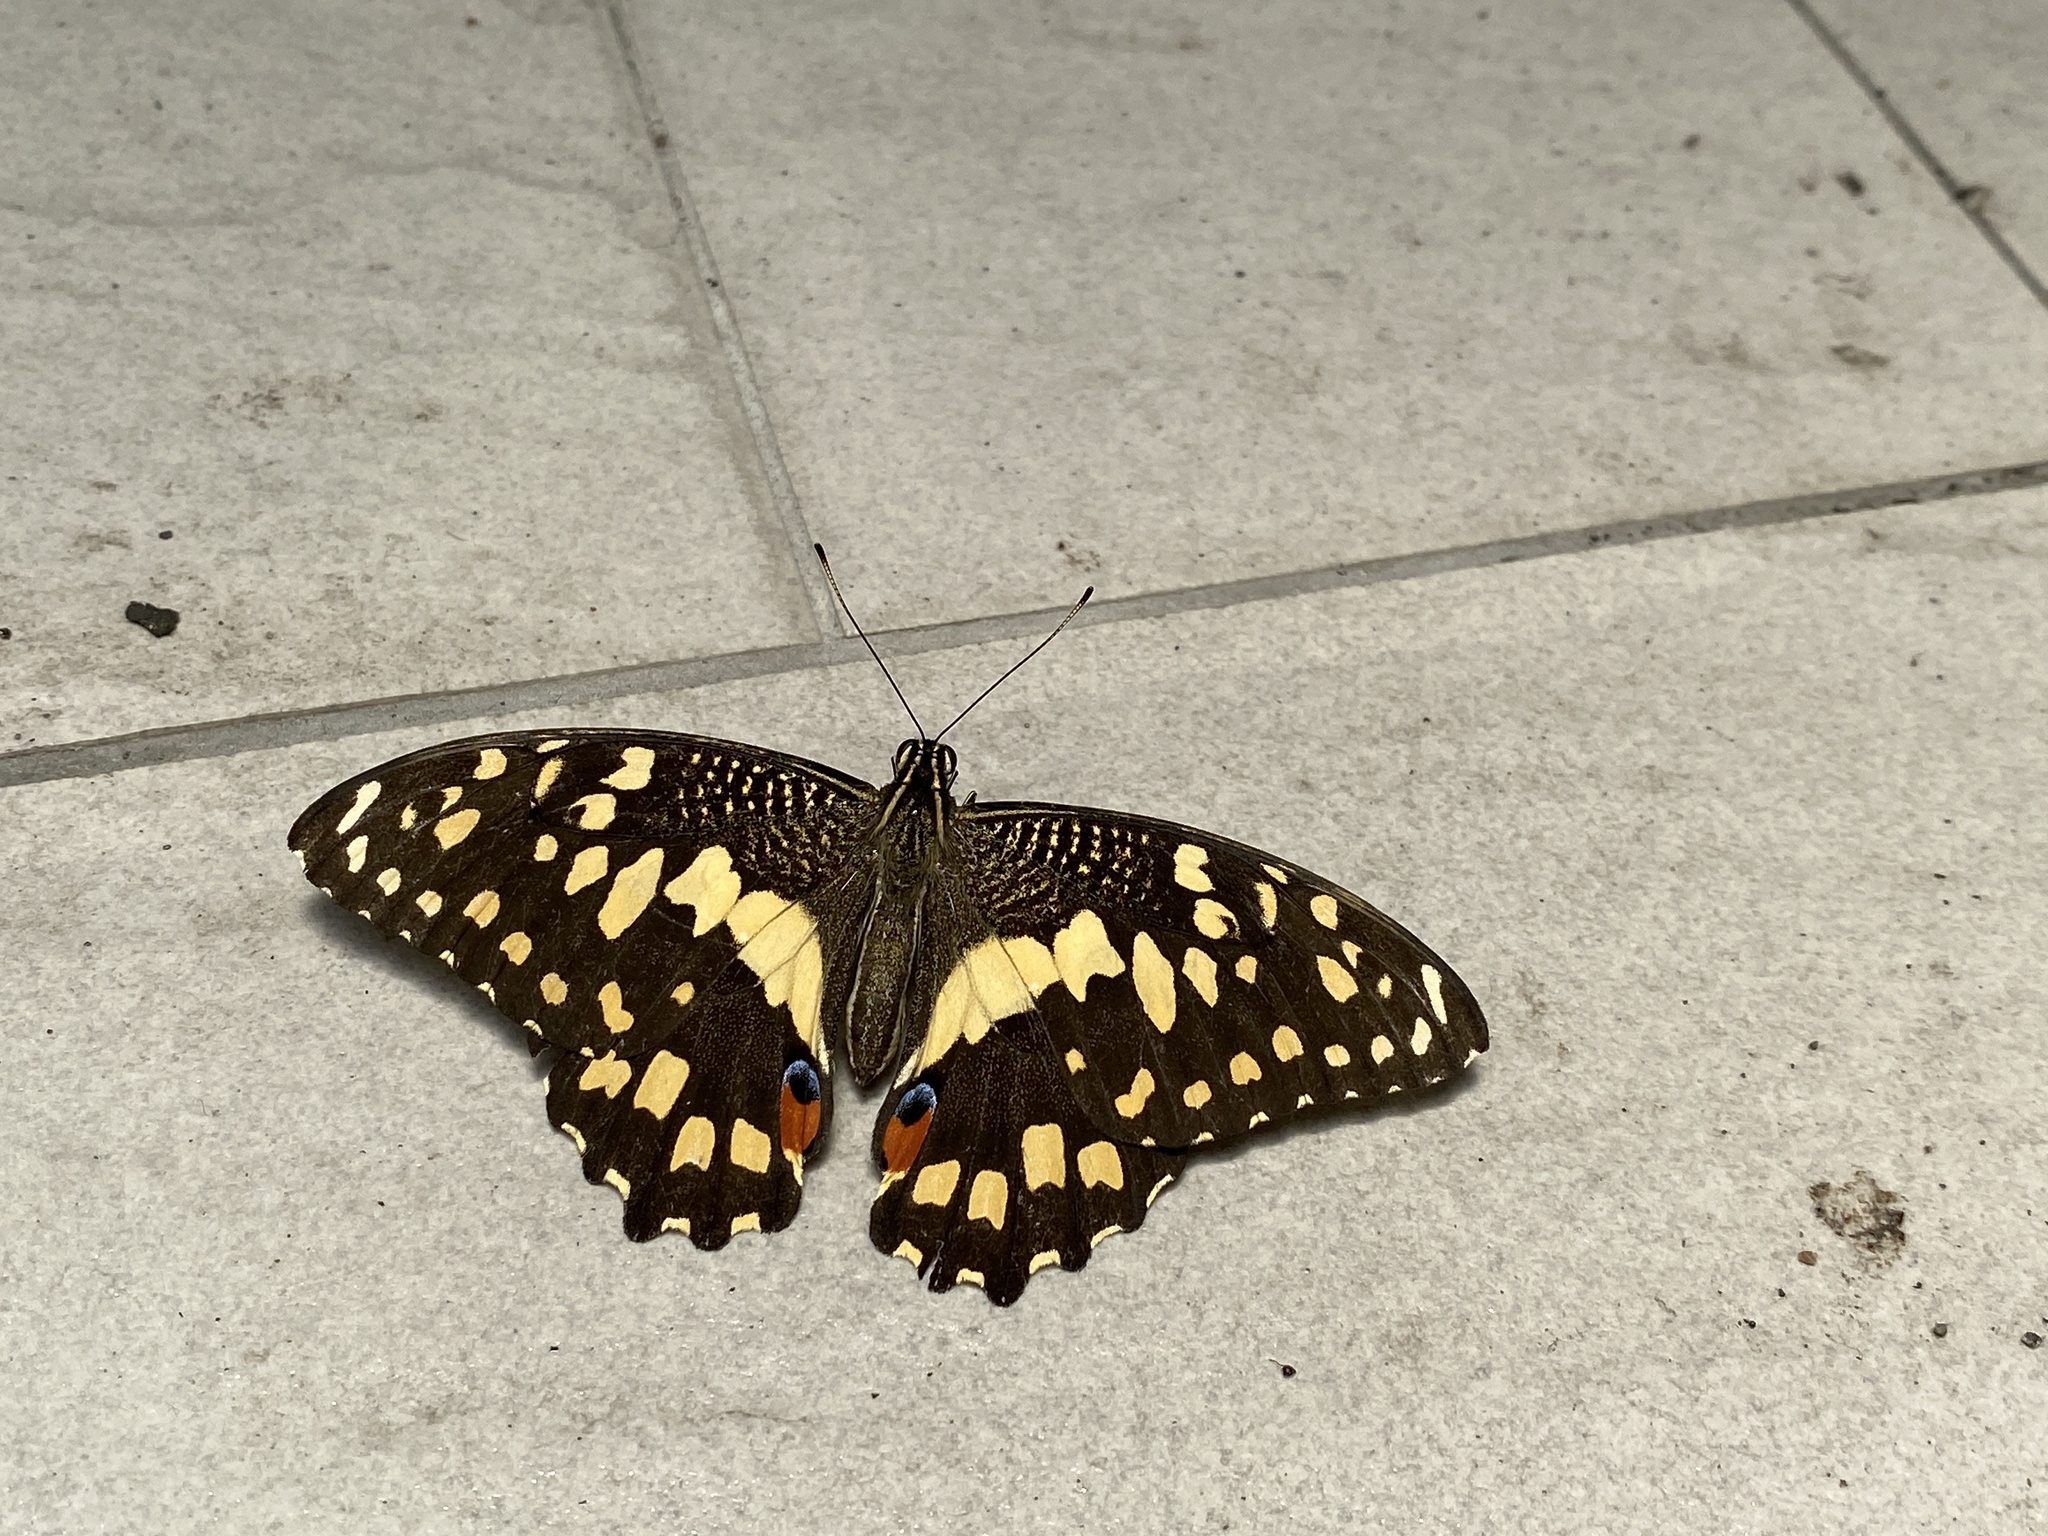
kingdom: Animalia
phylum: Arthropoda
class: Insecta
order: Lepidoptera
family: Papilionidae
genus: Papilio
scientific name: Papilio demoleus
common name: Lime butterfly
